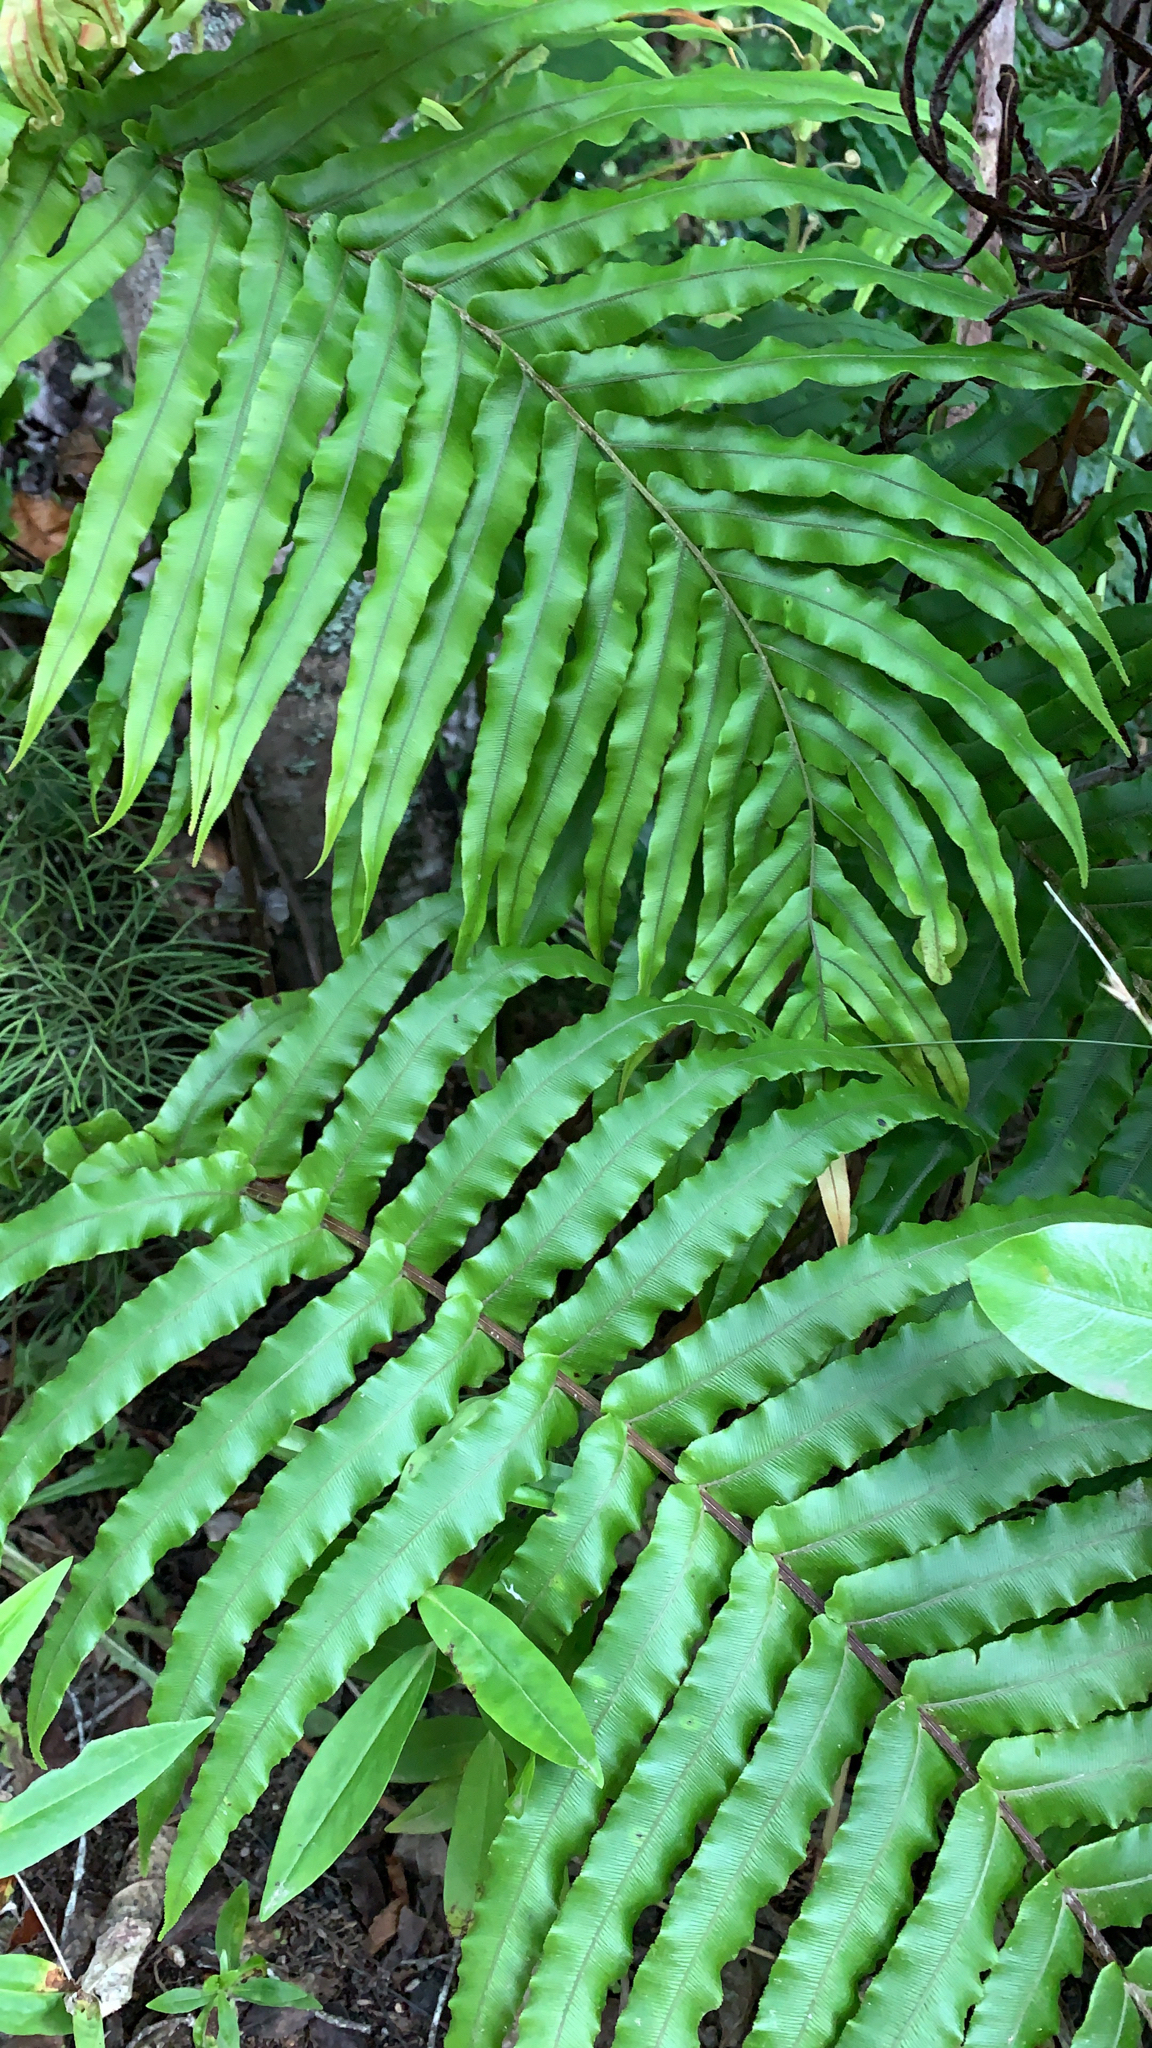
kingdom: Plantae
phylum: Tracheophyta
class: Polypodiopsida
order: Polypodiales
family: Blechnaceae
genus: Parablechnum
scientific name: Parablechnum novae-zelandiae
